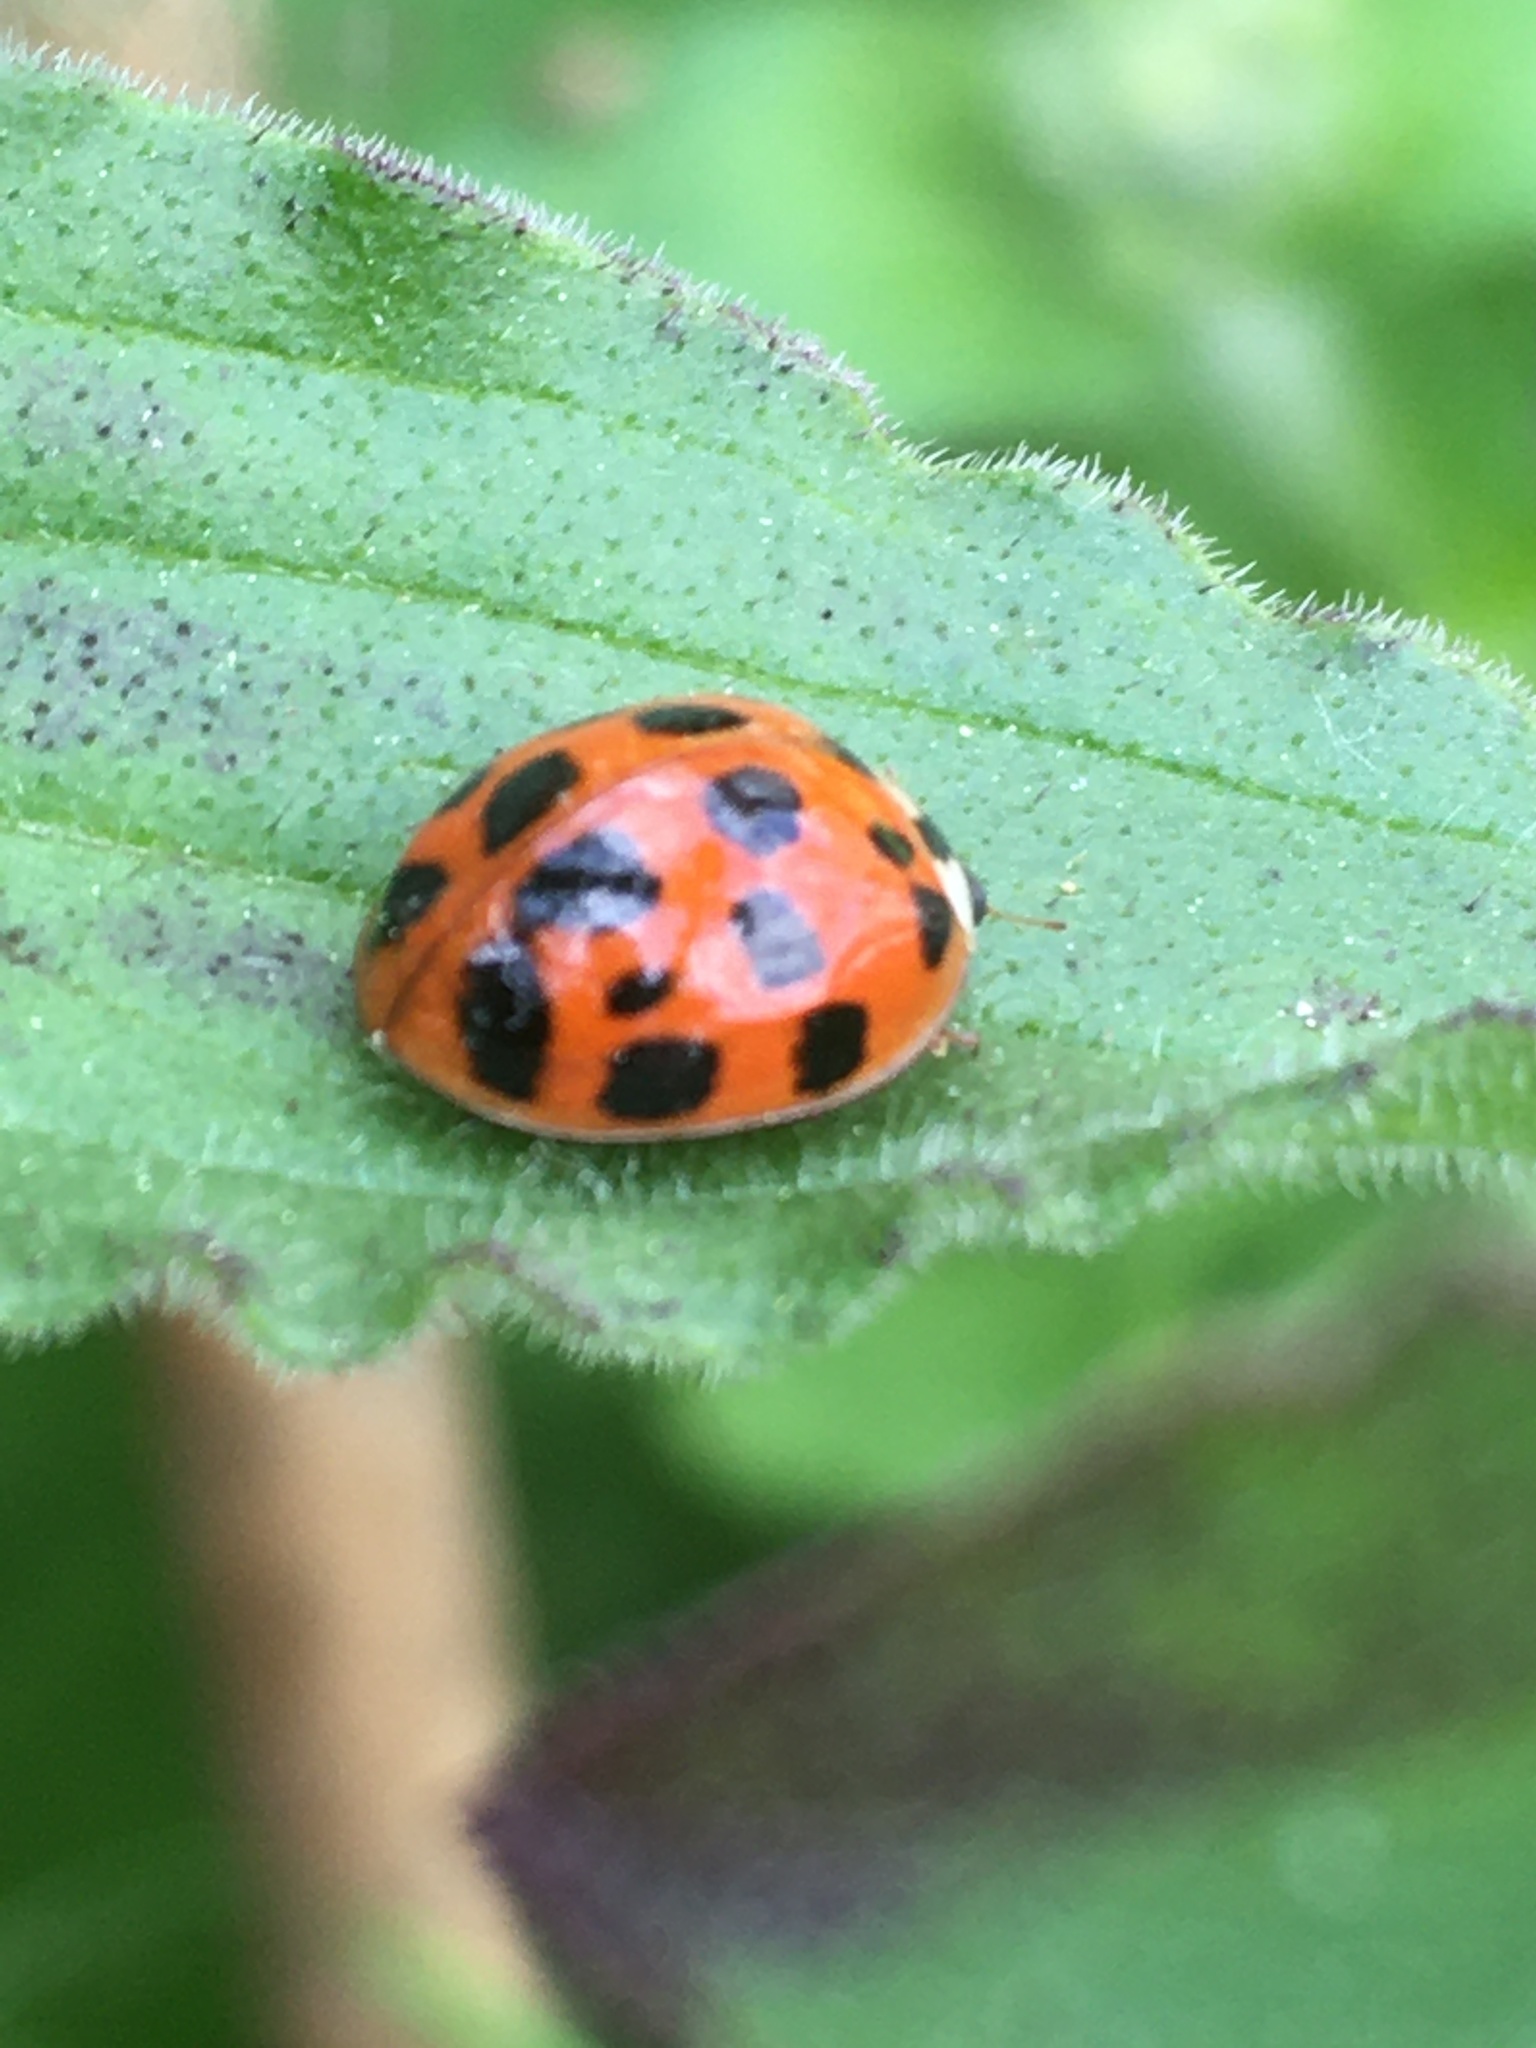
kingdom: Animalia
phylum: Arthropoda
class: Insecta
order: Coleoptera
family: Coccinellidae
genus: Harmonia
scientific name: Harmonia axyridis
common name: Harlequin ladybird
